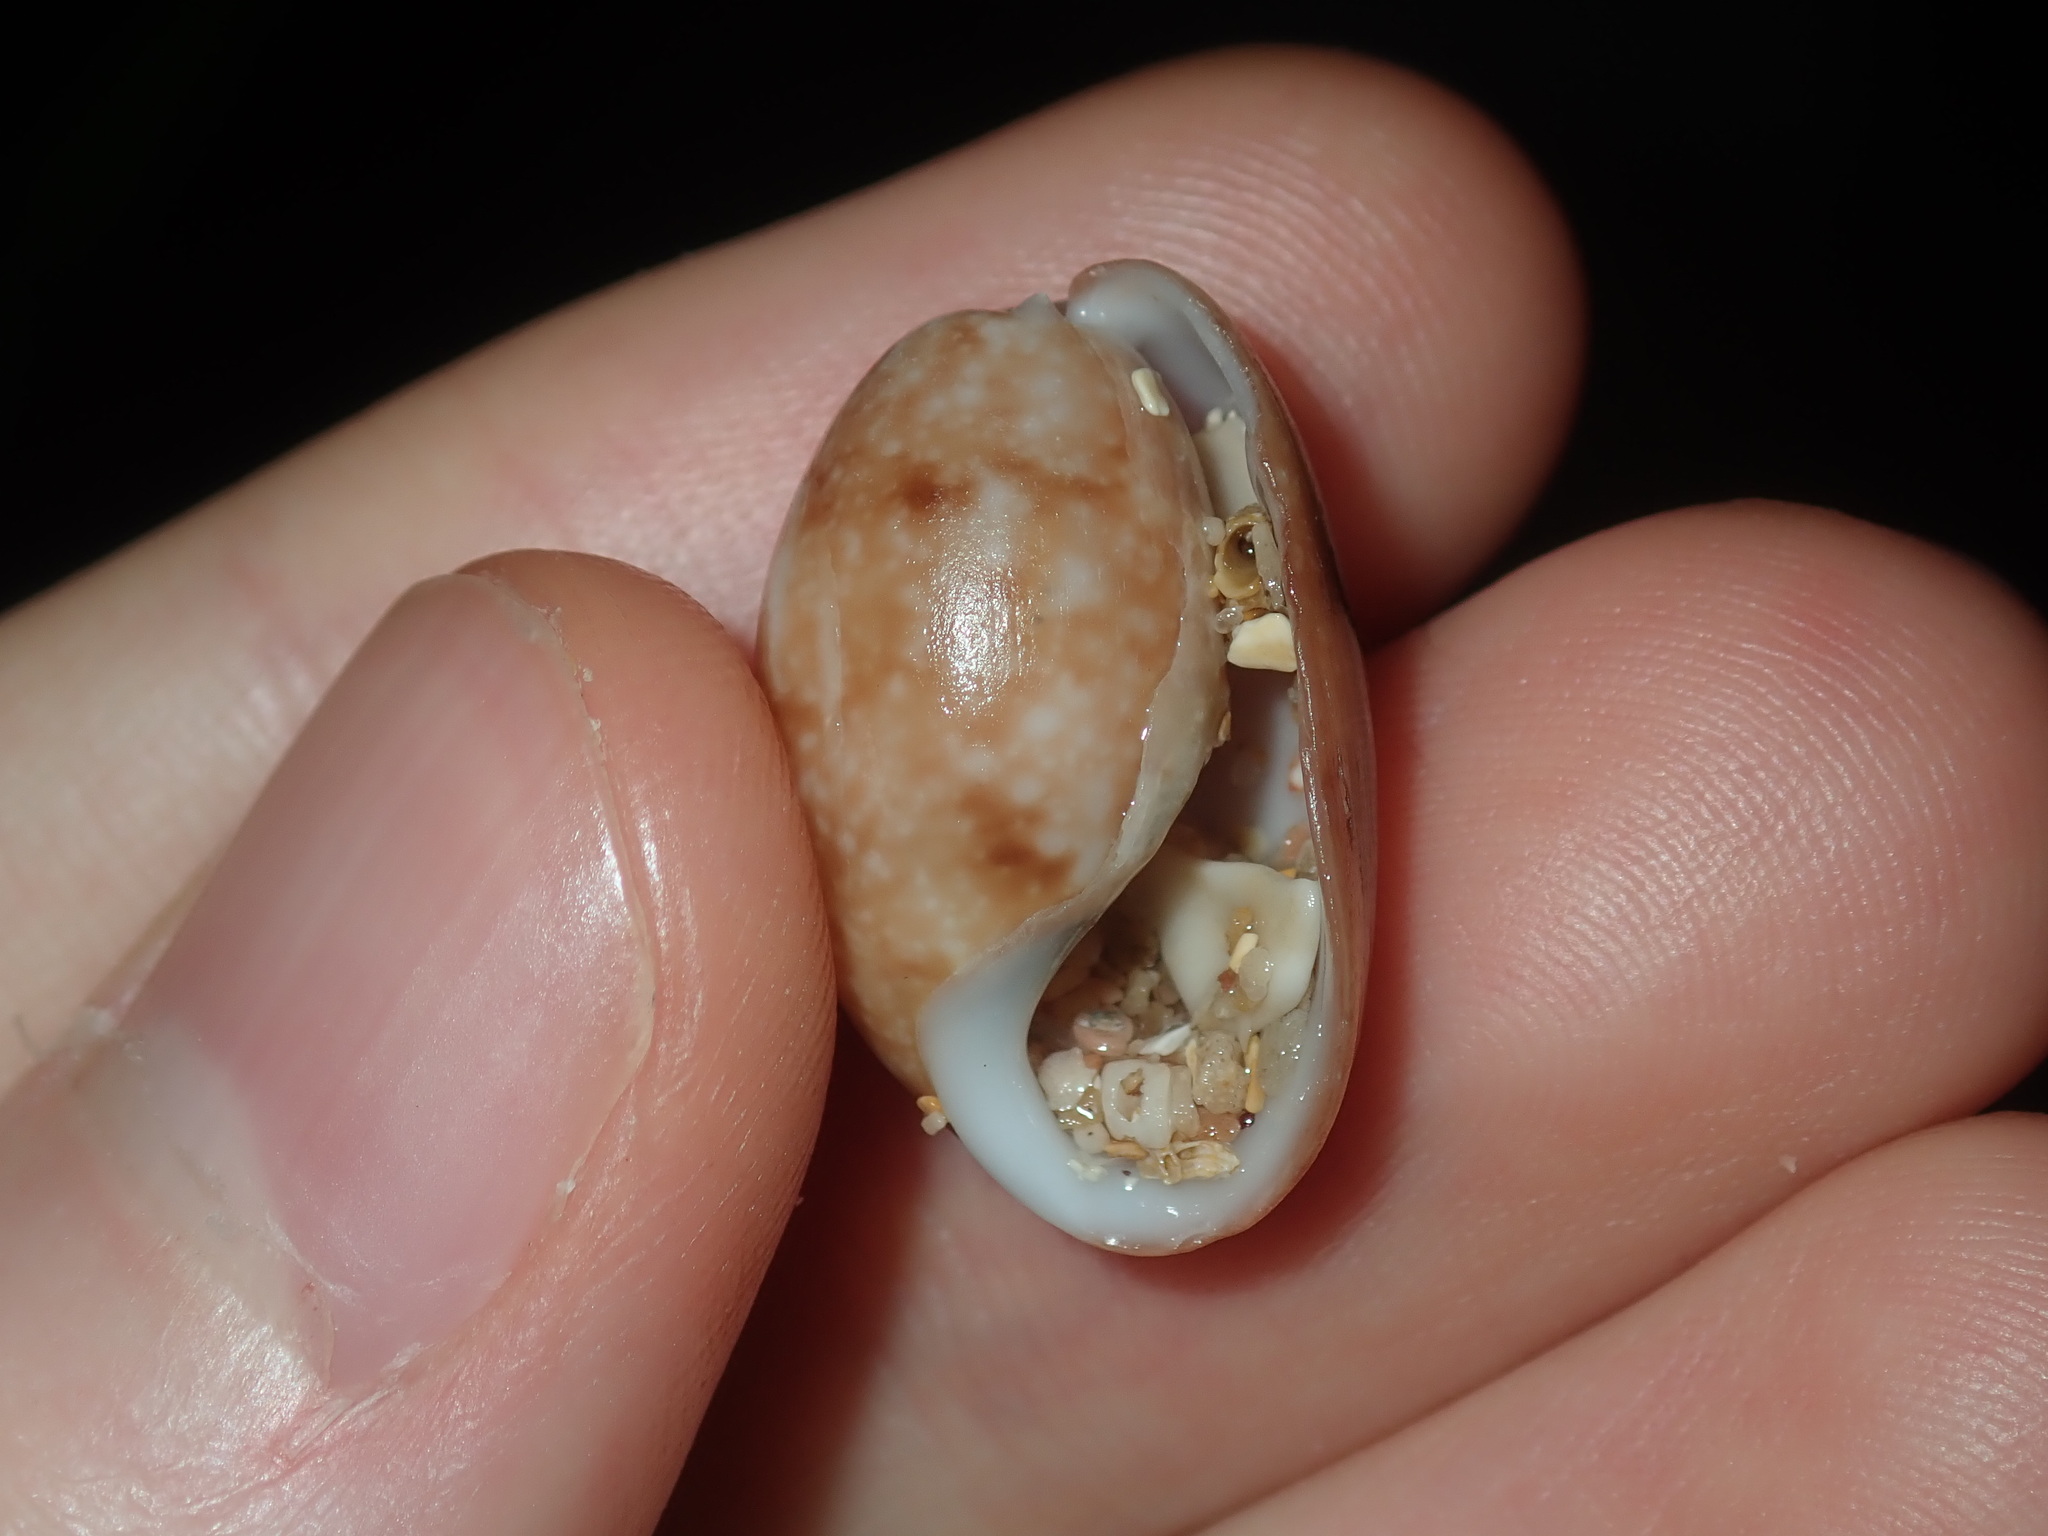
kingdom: Animalia
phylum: Mollusca
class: Gastropoda
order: Cephalaspidea
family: Bullidae
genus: Bulla
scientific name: Bulla mabillei
